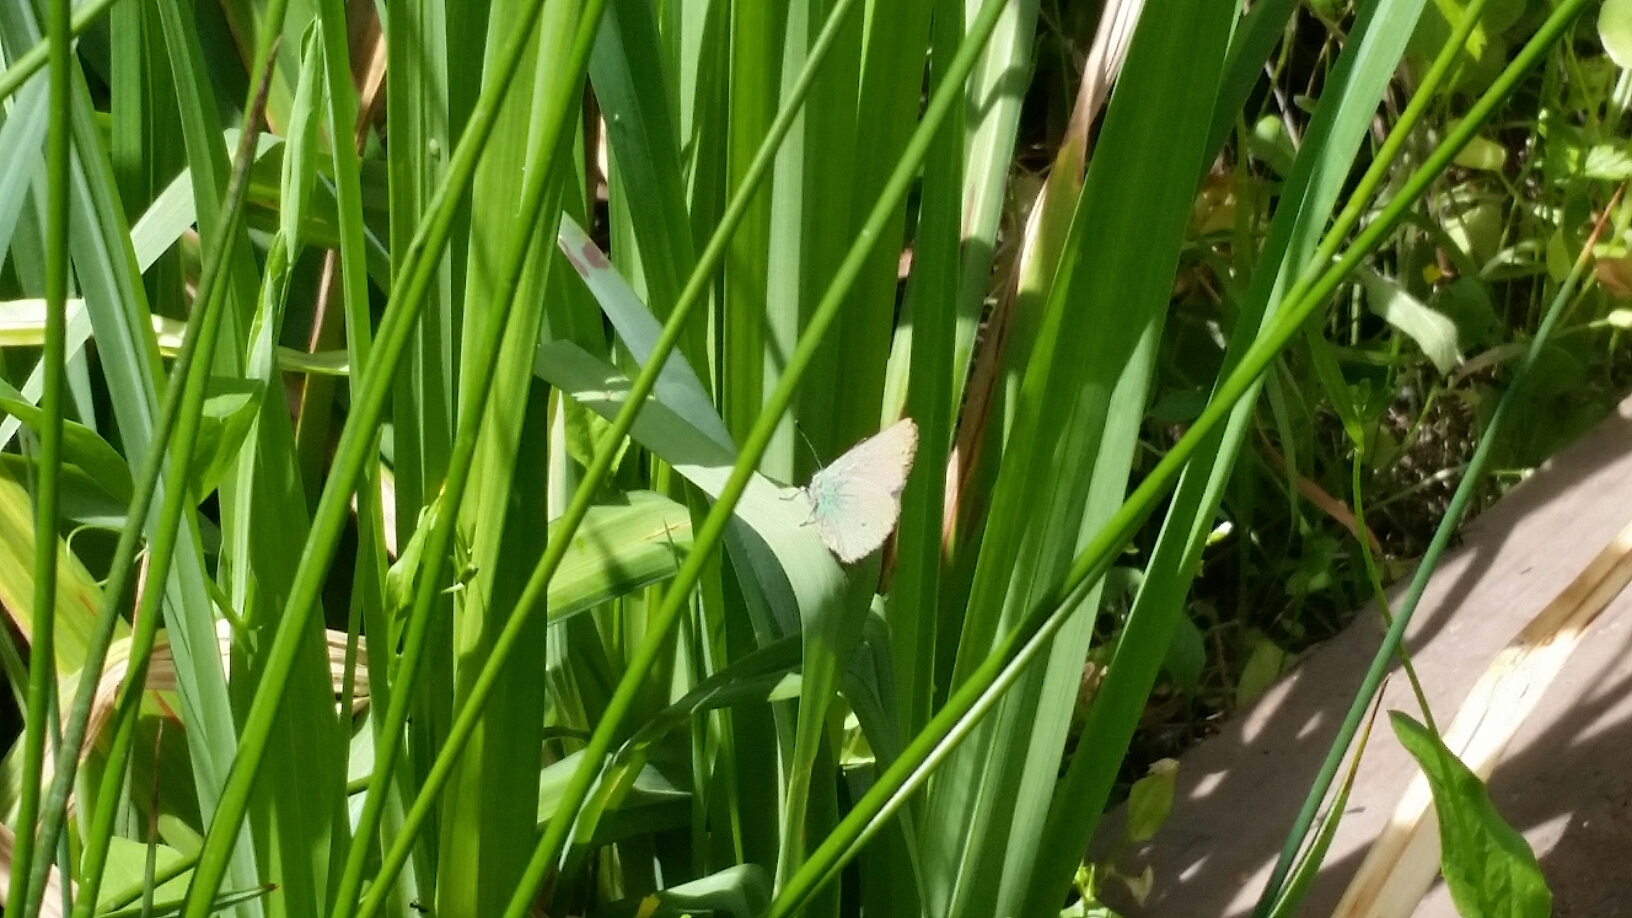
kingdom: Animalia
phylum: Arthropoda
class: Insecta
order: Lepidoptera
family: Lycaenidae
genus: Callophrys
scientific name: Callophrys dumetorum
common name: Bramble hairstreak
